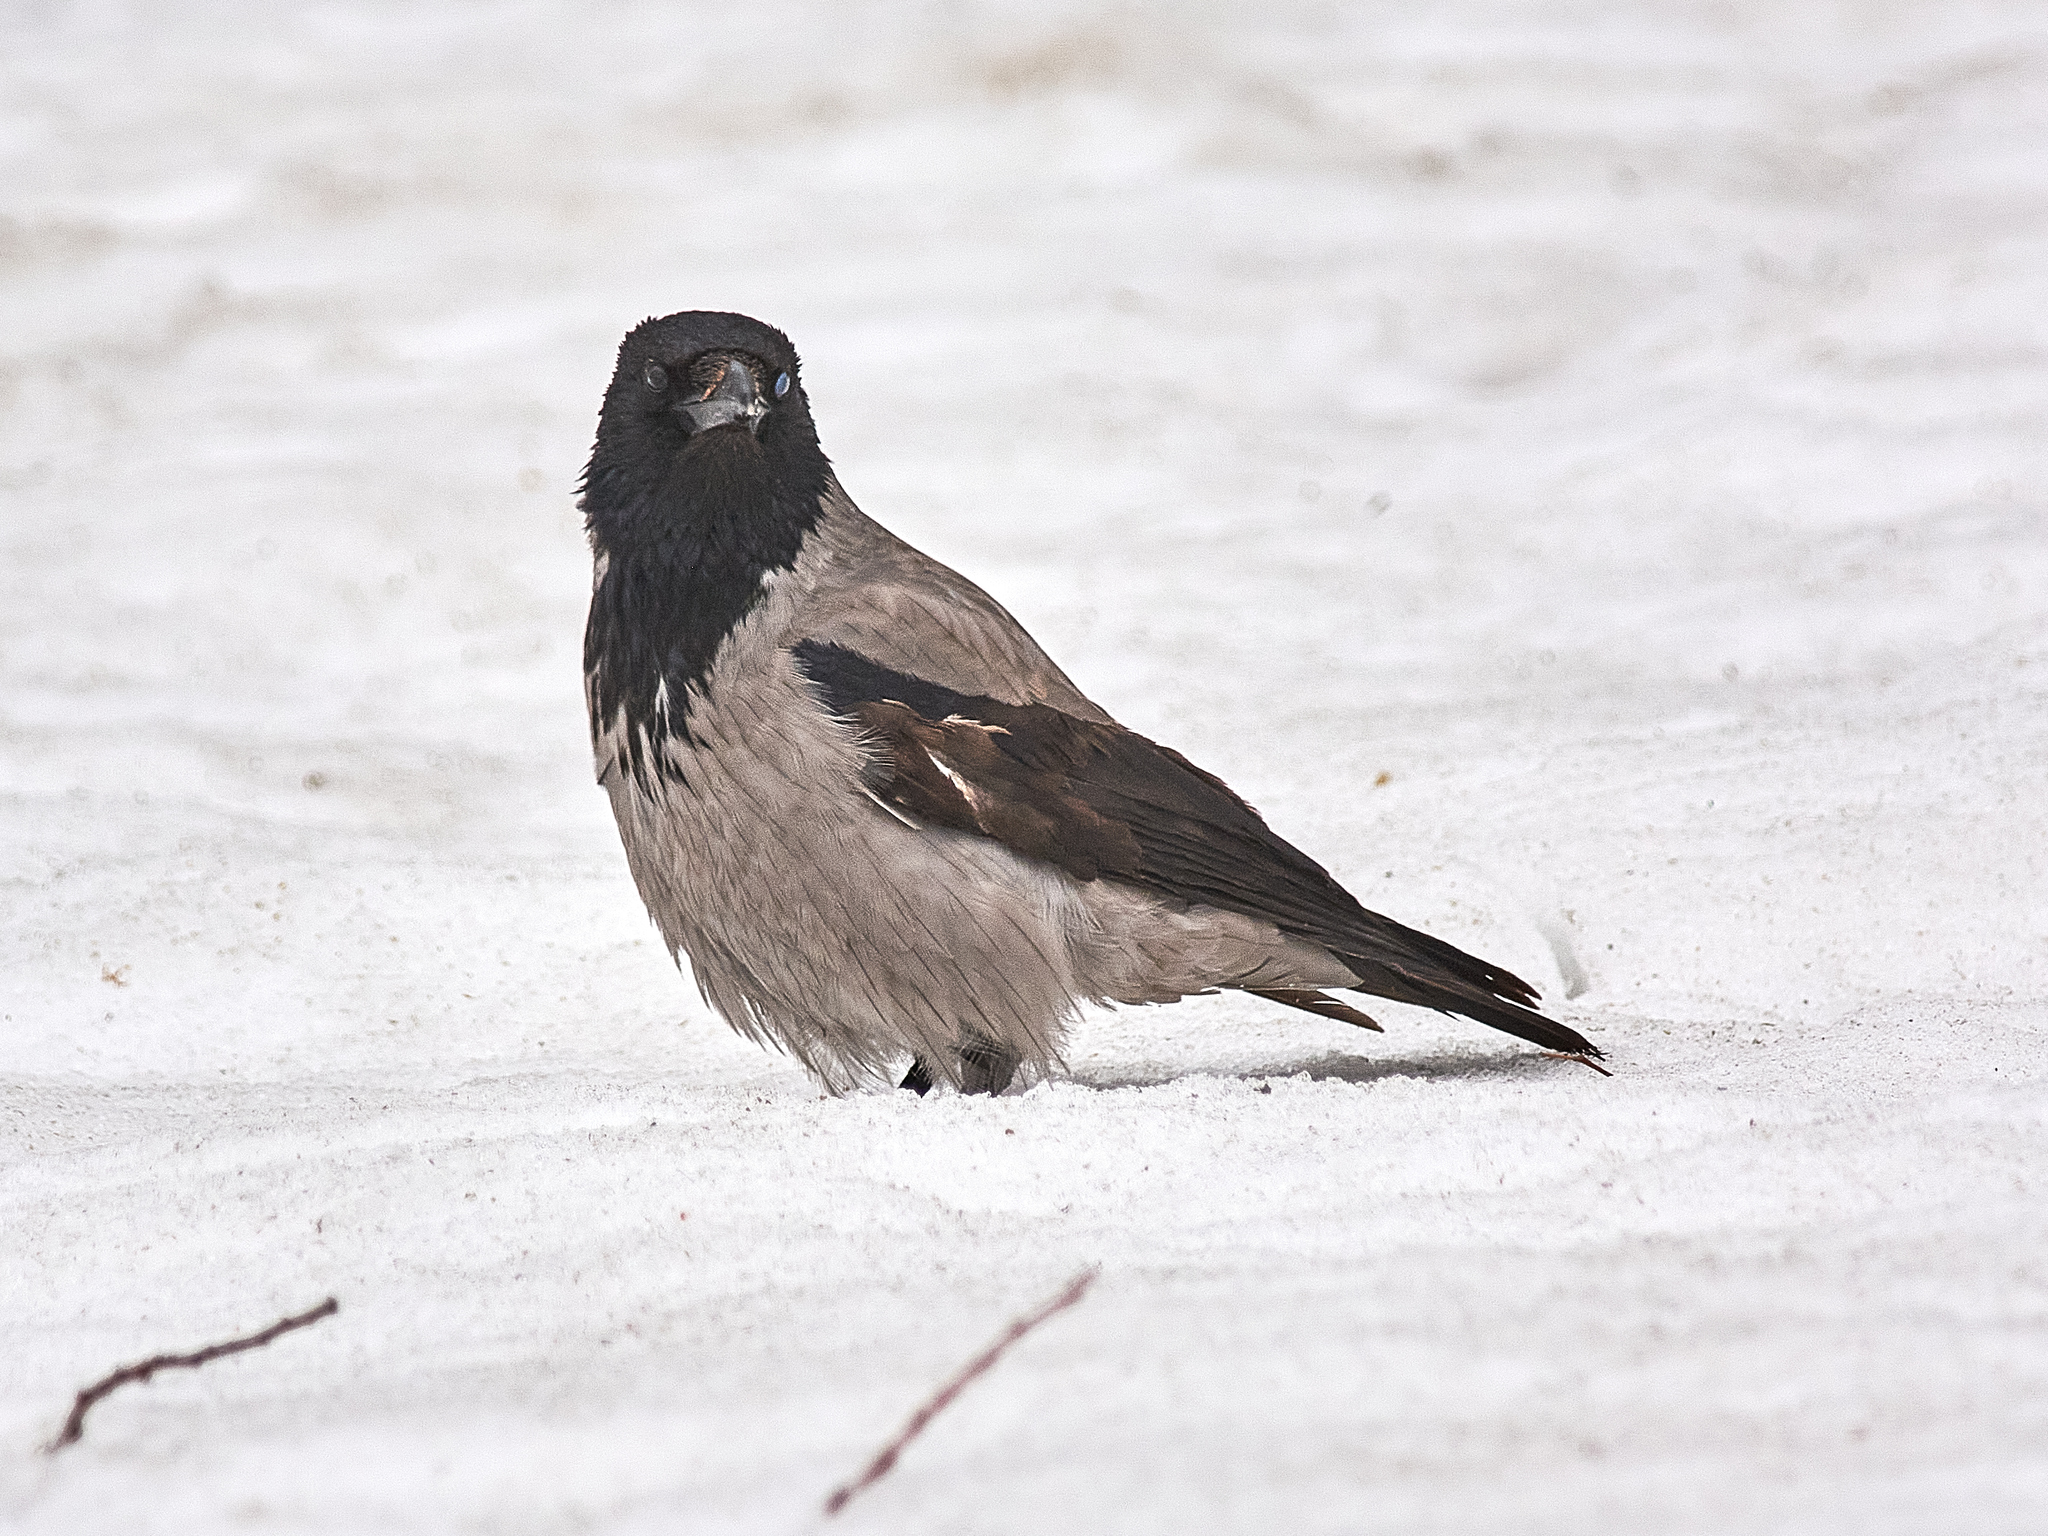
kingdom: Animalia
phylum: Chordata
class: Aves
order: Passeriformes
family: Corvidae
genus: Corvus
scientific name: Corvus cornix
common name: Hooded crow
